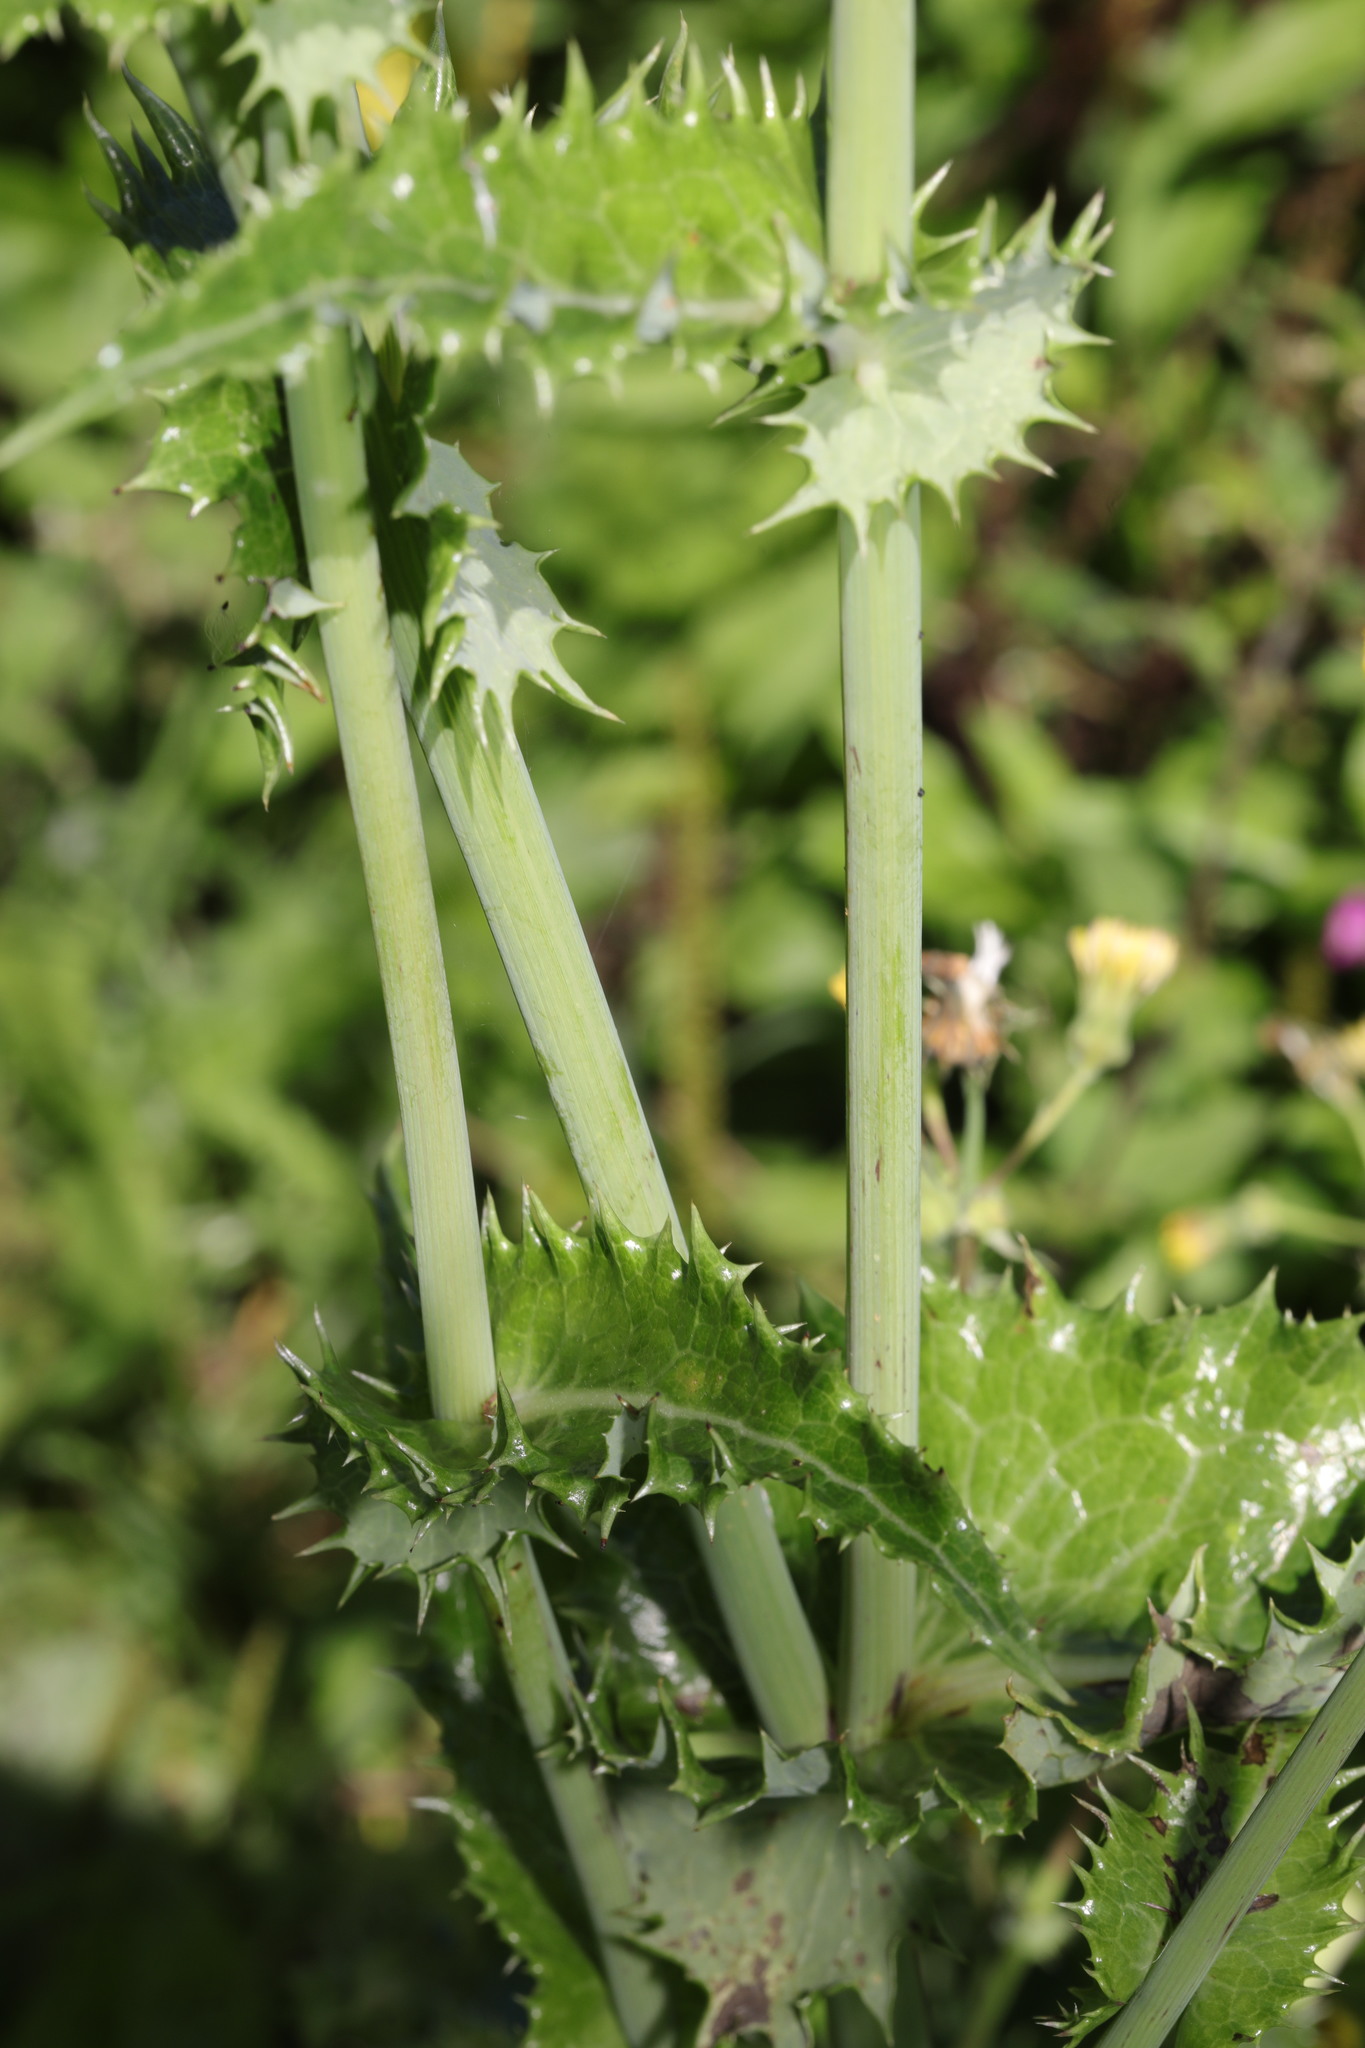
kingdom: Plantae
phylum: Tracheophyta
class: Magnoliopsida
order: Asterales
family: Asteraceae
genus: Sonchus
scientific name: Sonchus asper
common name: Prickly sow-thistle
